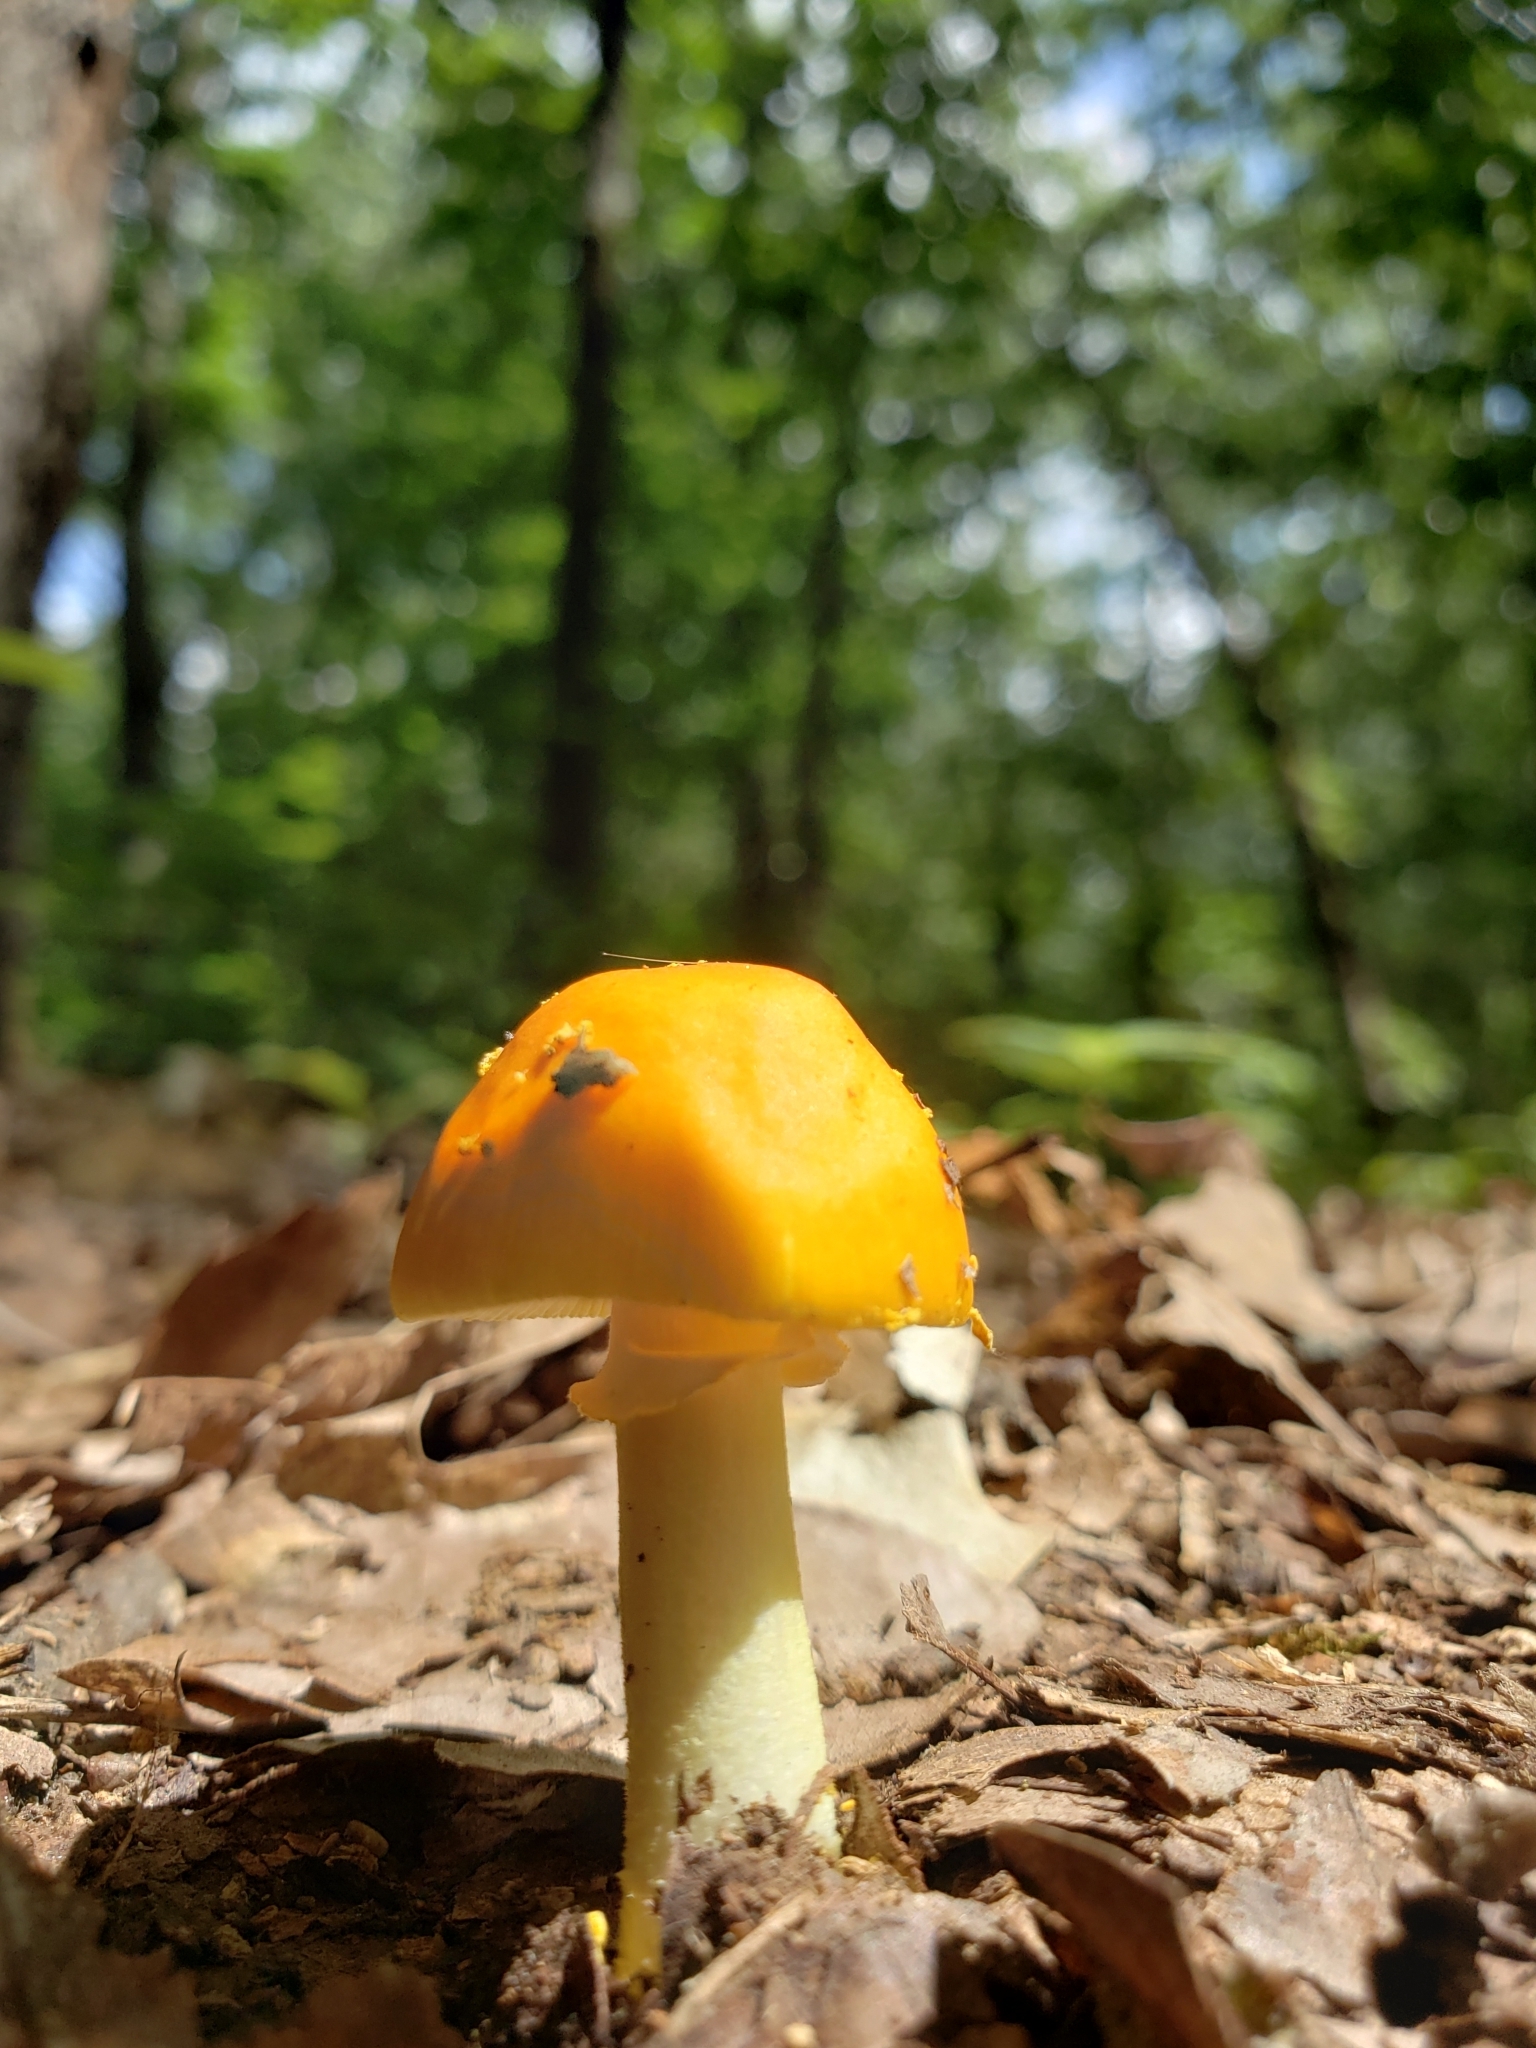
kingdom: Fungi
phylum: Basidiomycota
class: Agaricomycetes
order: Agaricales
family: Amanitaceae
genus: Amanita
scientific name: Amanita flavoconia
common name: Yellow patches
